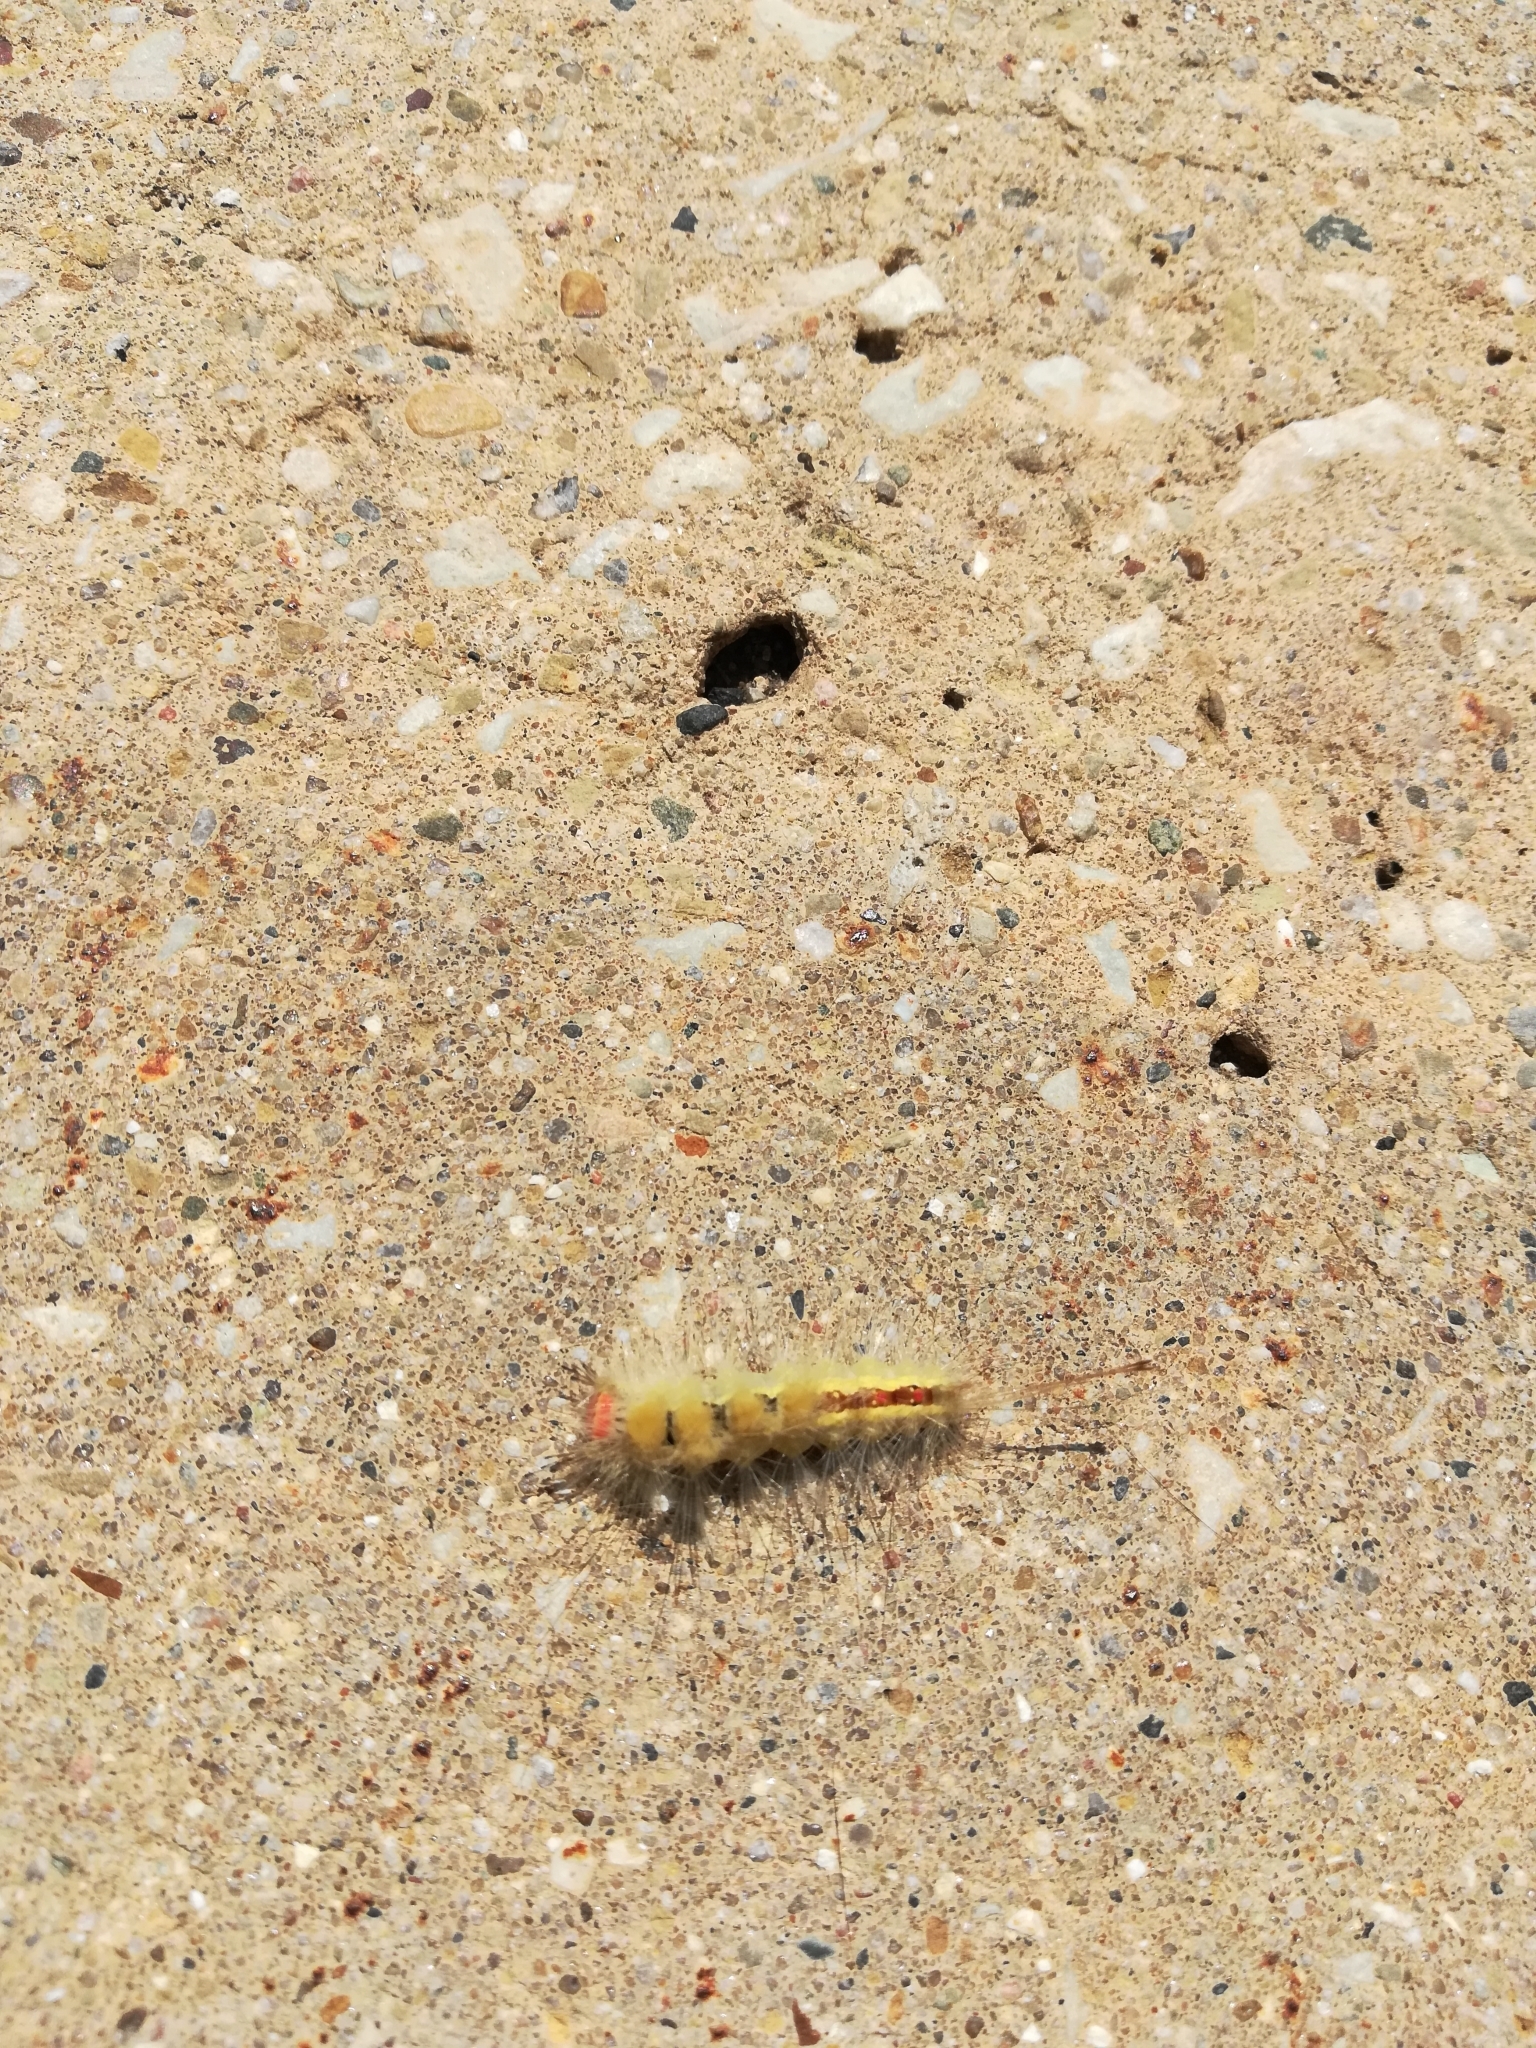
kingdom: Animalia
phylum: Arthropoda
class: Insecta
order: Lepidoptera
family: Erebidae
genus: Orgyia
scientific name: Orgyia leucostigma
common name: White-marked tussock moth
